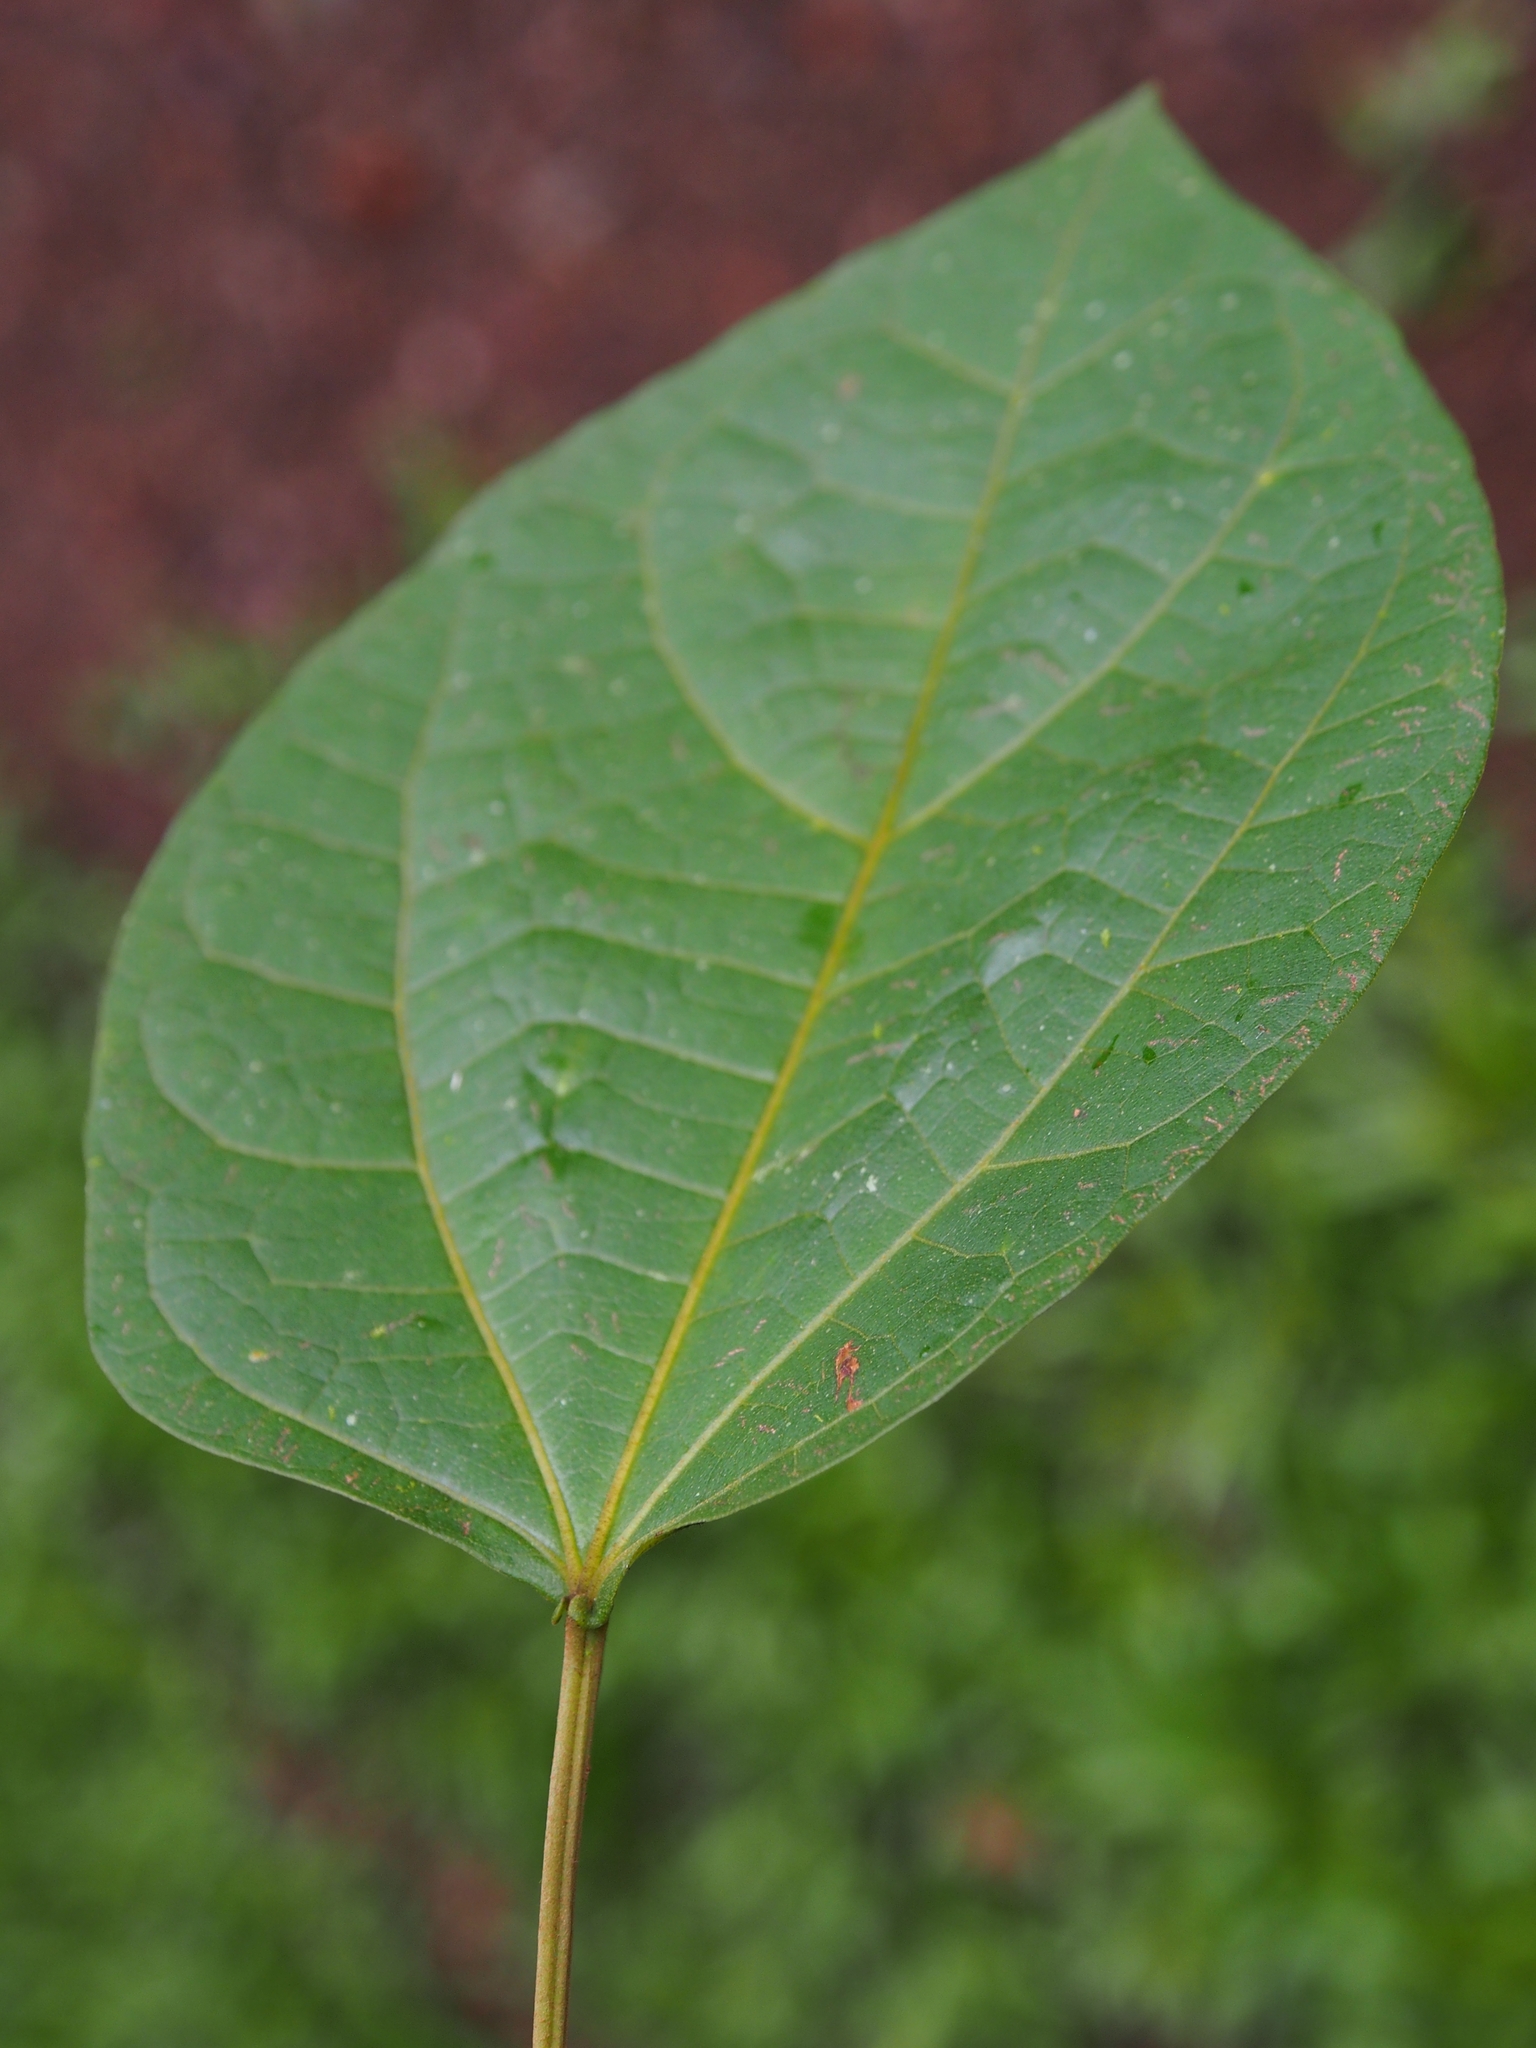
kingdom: Plantae
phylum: Tracheophyta
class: Magnoliopsida
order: Malvales
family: Malvaceae
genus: Hampea
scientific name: Hampea appendiculata
